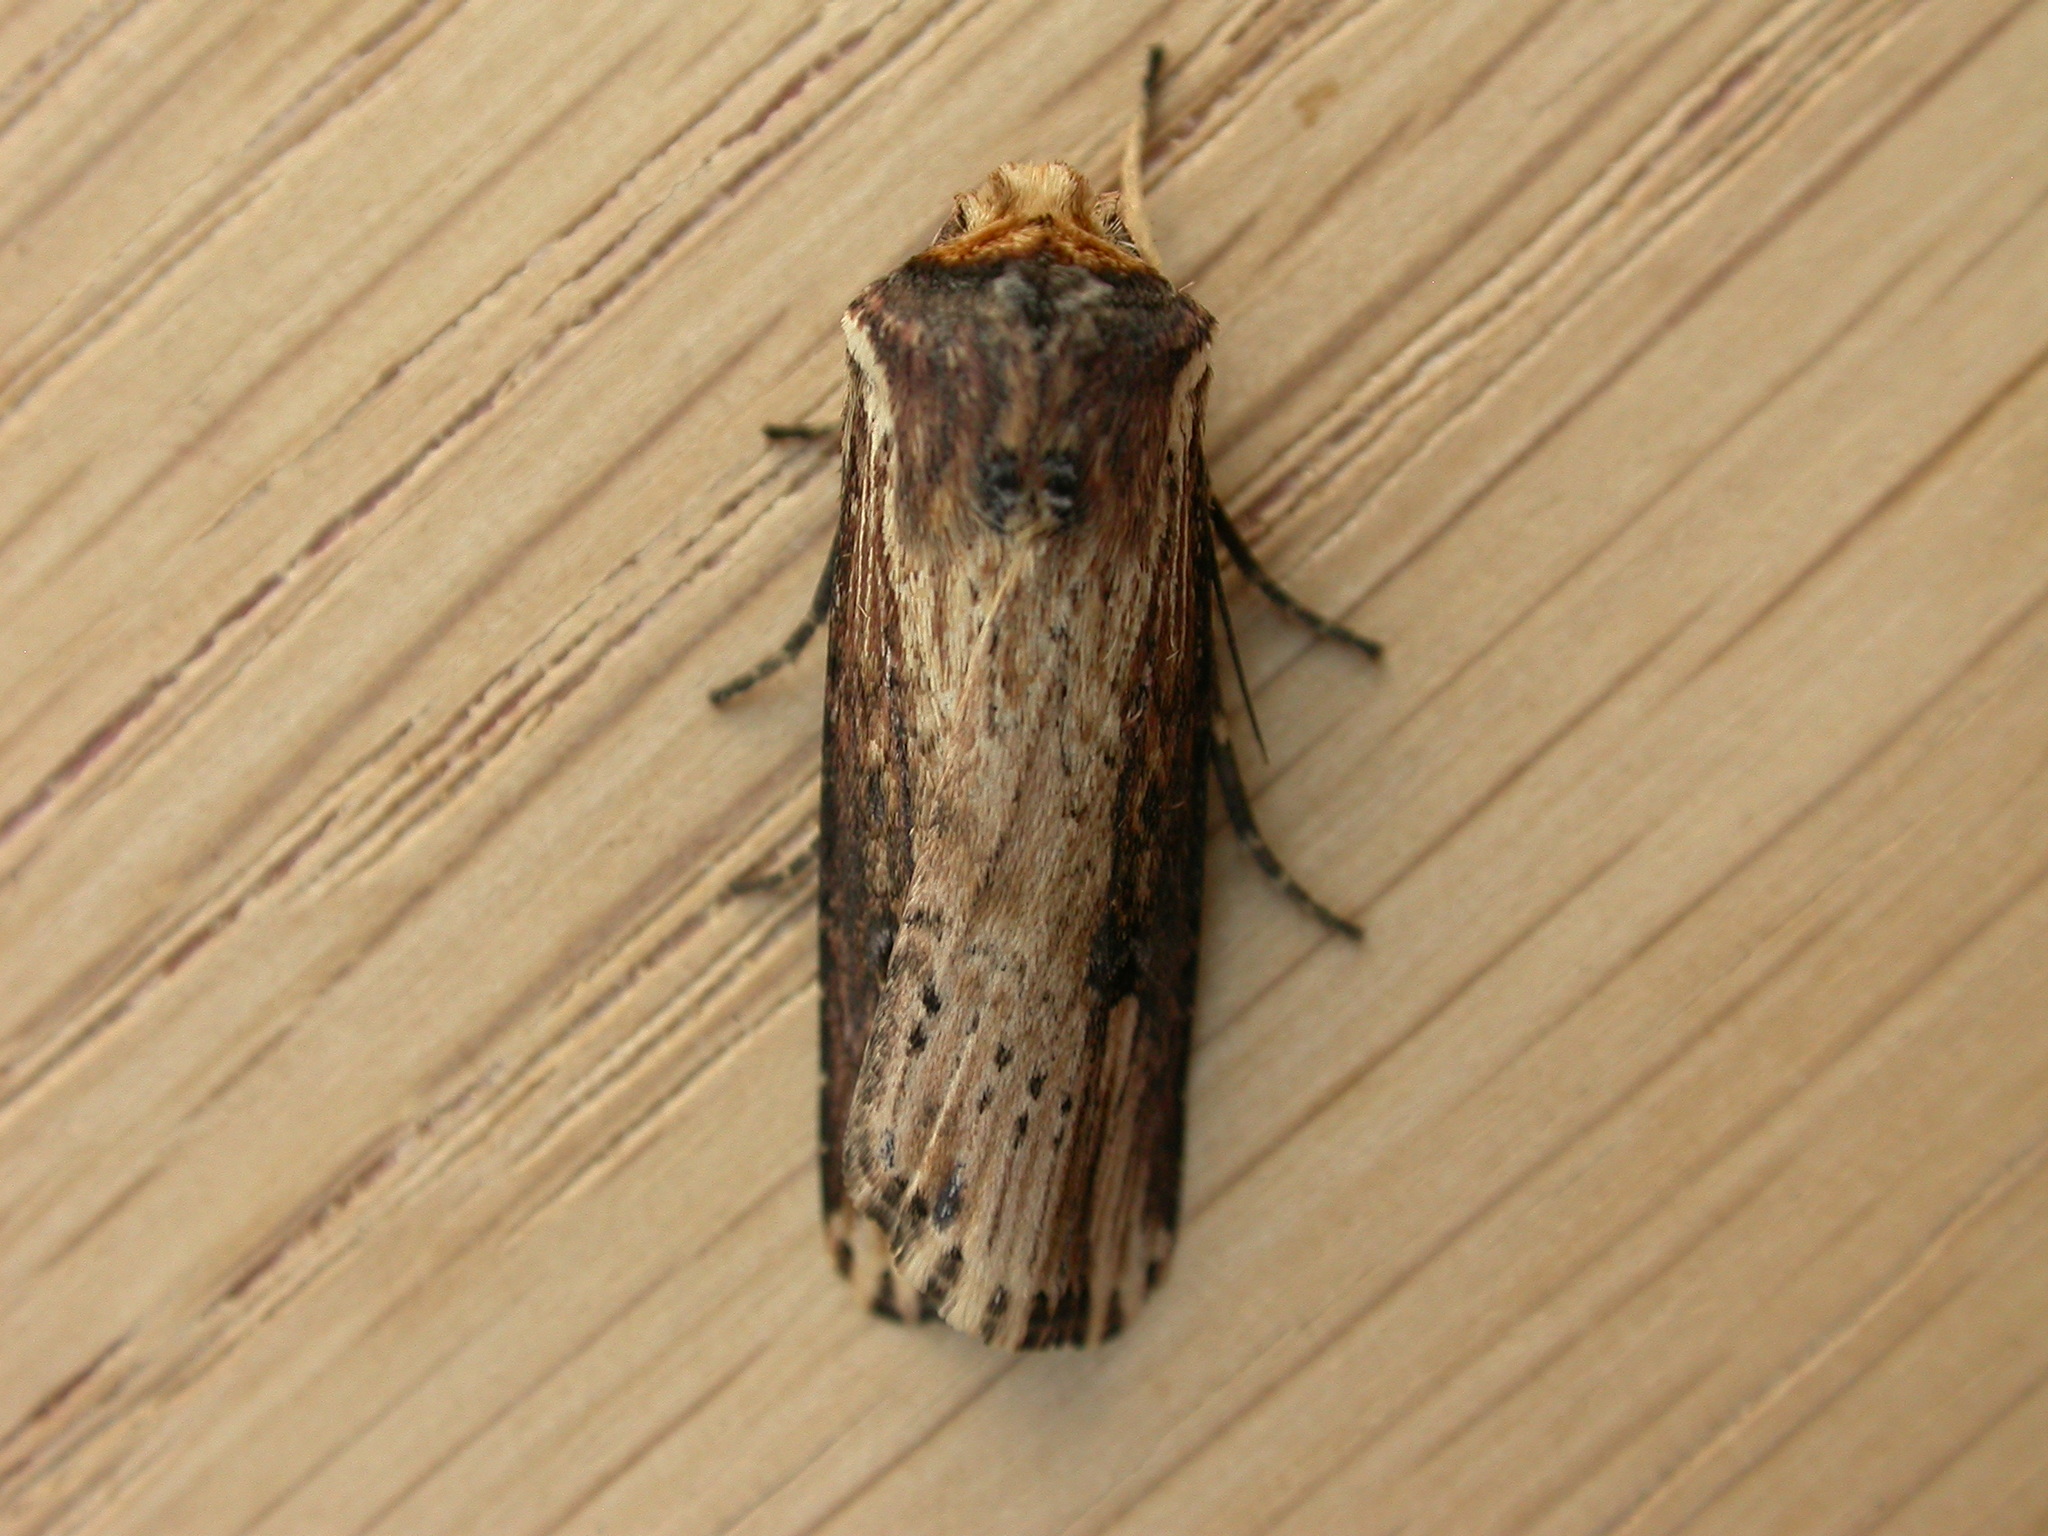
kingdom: Animalia
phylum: Arthropoda
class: Insecta
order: Lepidoptera
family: Noctuidae
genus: Axylia
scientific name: Axylia putris
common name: Flame
